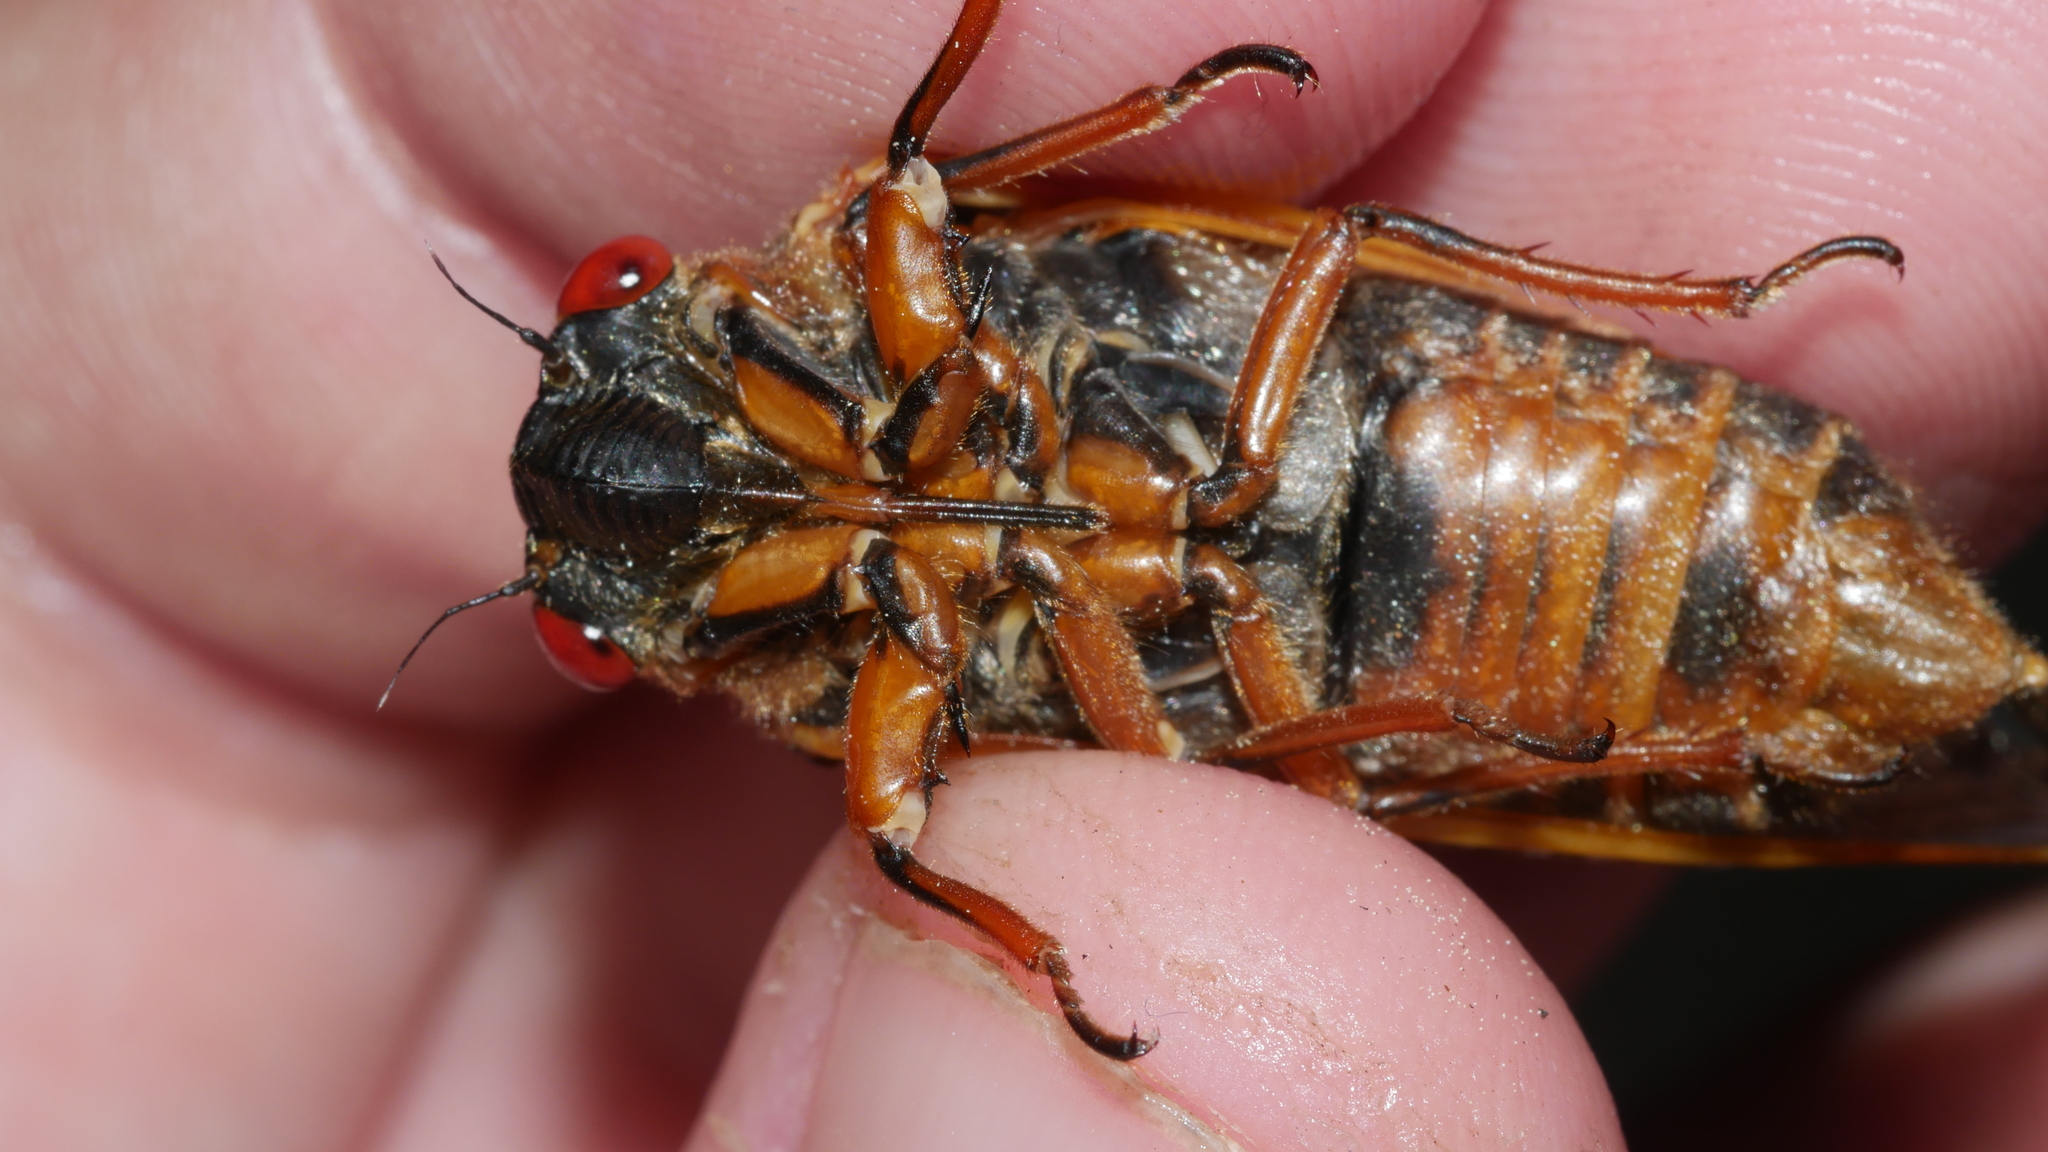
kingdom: Animalia
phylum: Arthropoda
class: Insecta
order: Hemiptera
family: Cicadidae
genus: Magicicada
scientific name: Magicicada septendecim
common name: Periodical cicada
